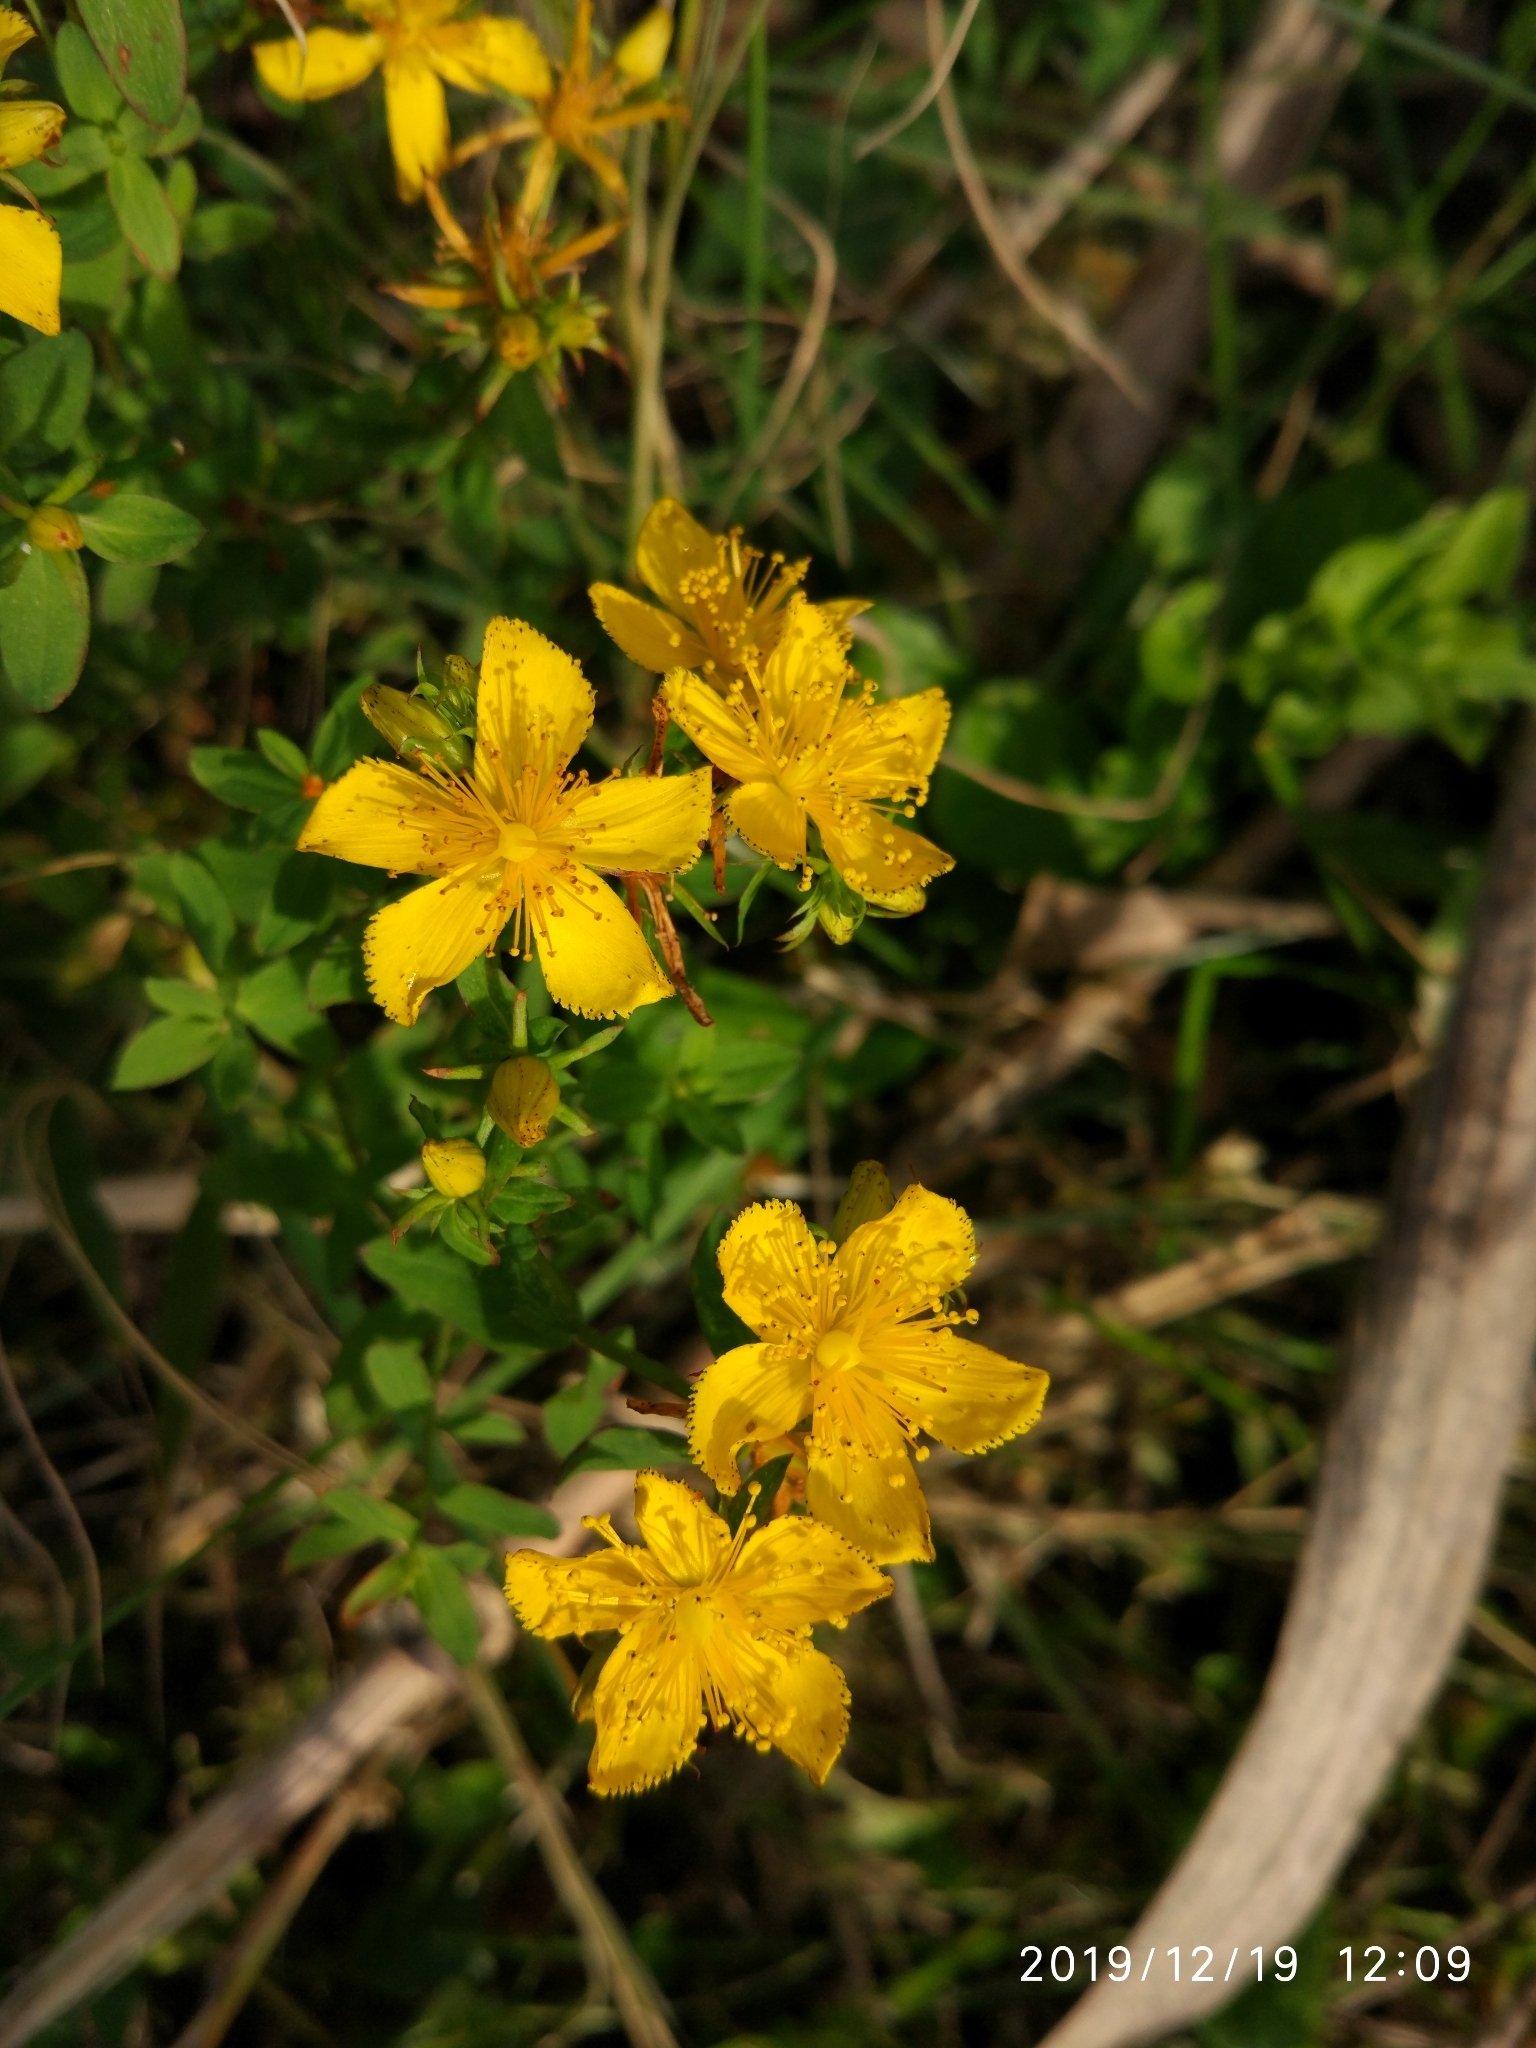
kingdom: Plantae
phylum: Tracheophyta
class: Magnoliopsida
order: Malpighiales
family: Hypericaceae
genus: Hypericum
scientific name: Hypericum perforatum
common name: Common st. johnswort
